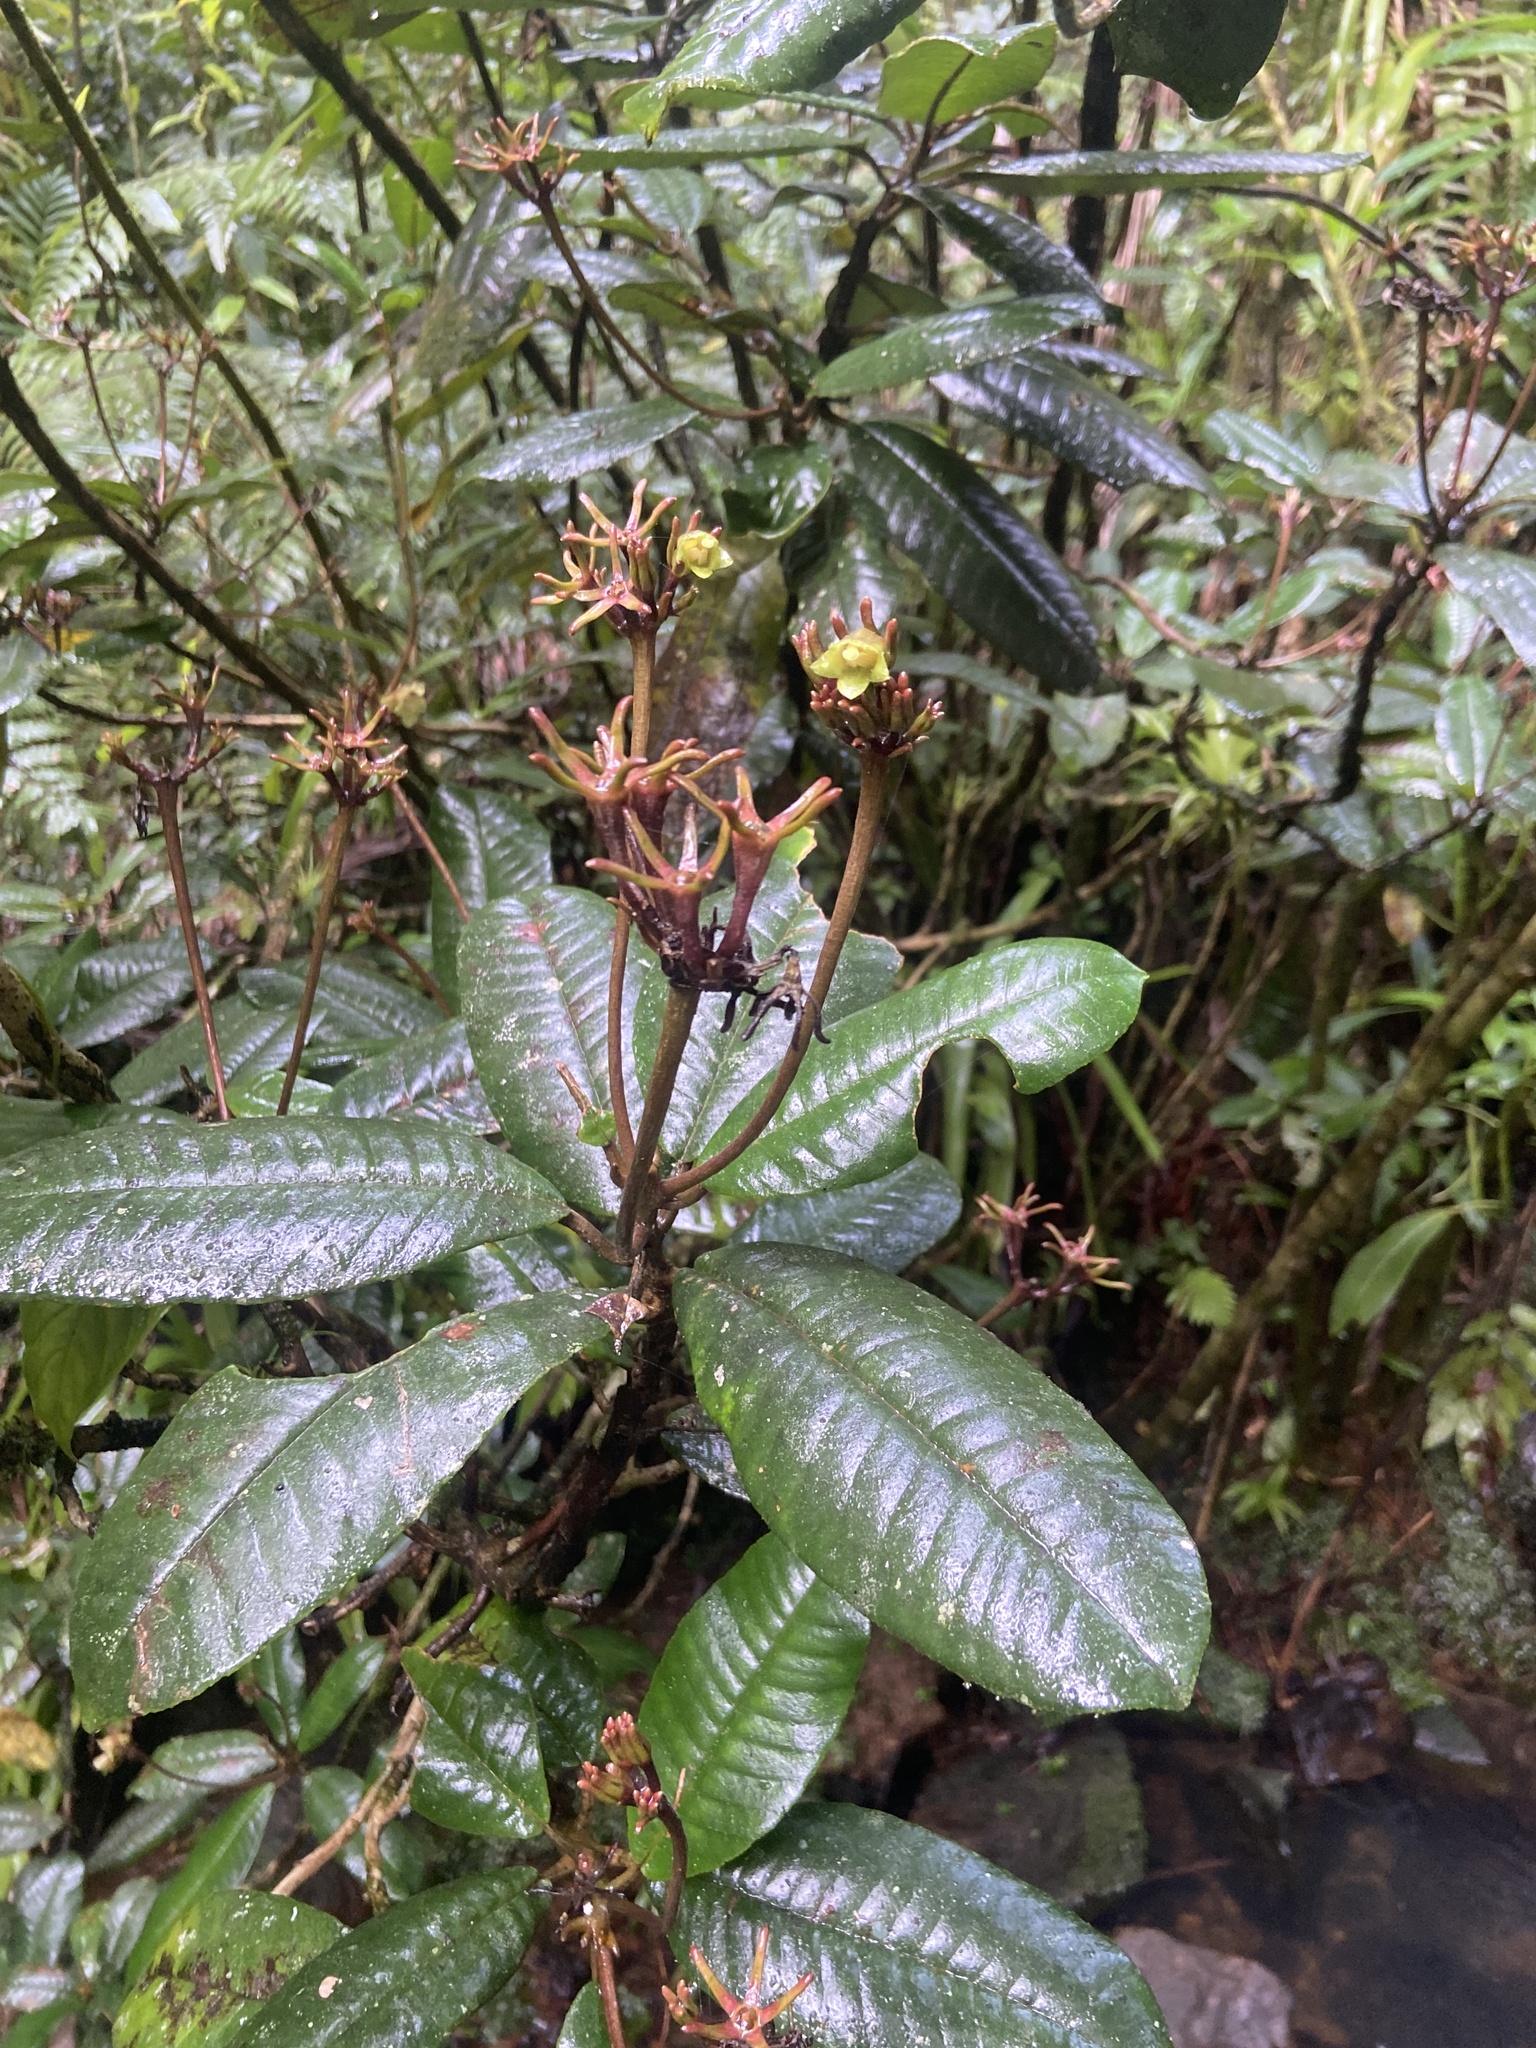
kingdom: Plantae
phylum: Tracheophyta
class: Magnoliopsida
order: Lamiales
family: Gesneriaceae
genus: Gesneria
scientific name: Gesneria sintenisii
